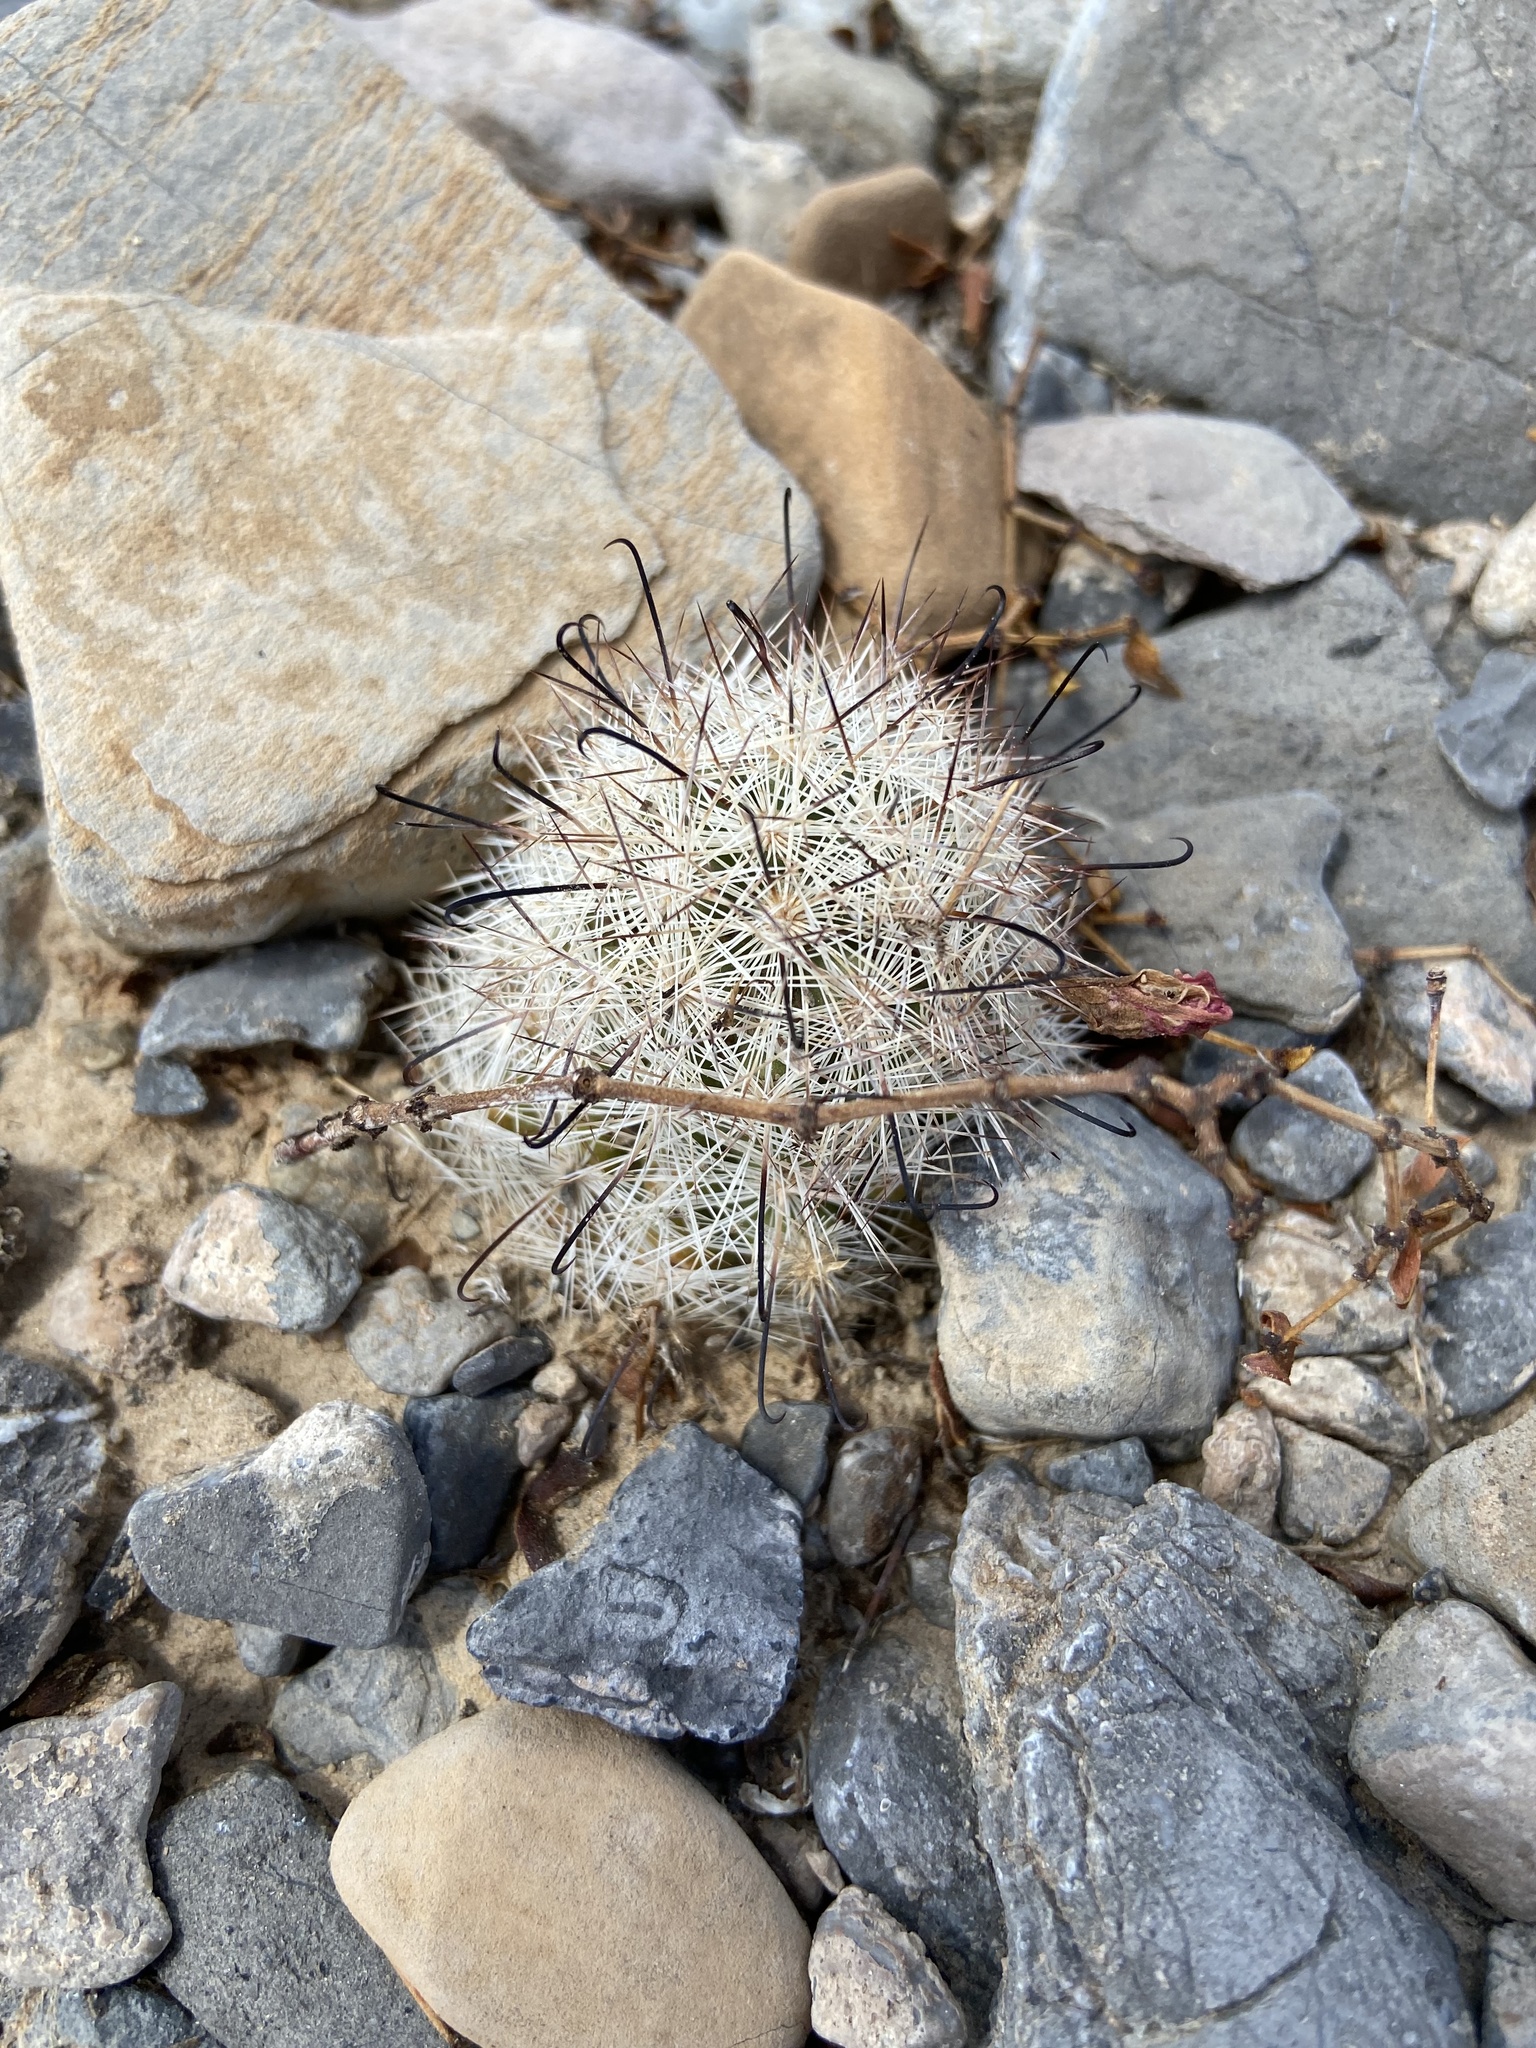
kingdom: Plantae
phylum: Tracheophyta
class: Magnoliopsida
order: Caryophyllales
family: Cactaceae
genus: Cochemiea
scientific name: Cochemiea tetrancistra
